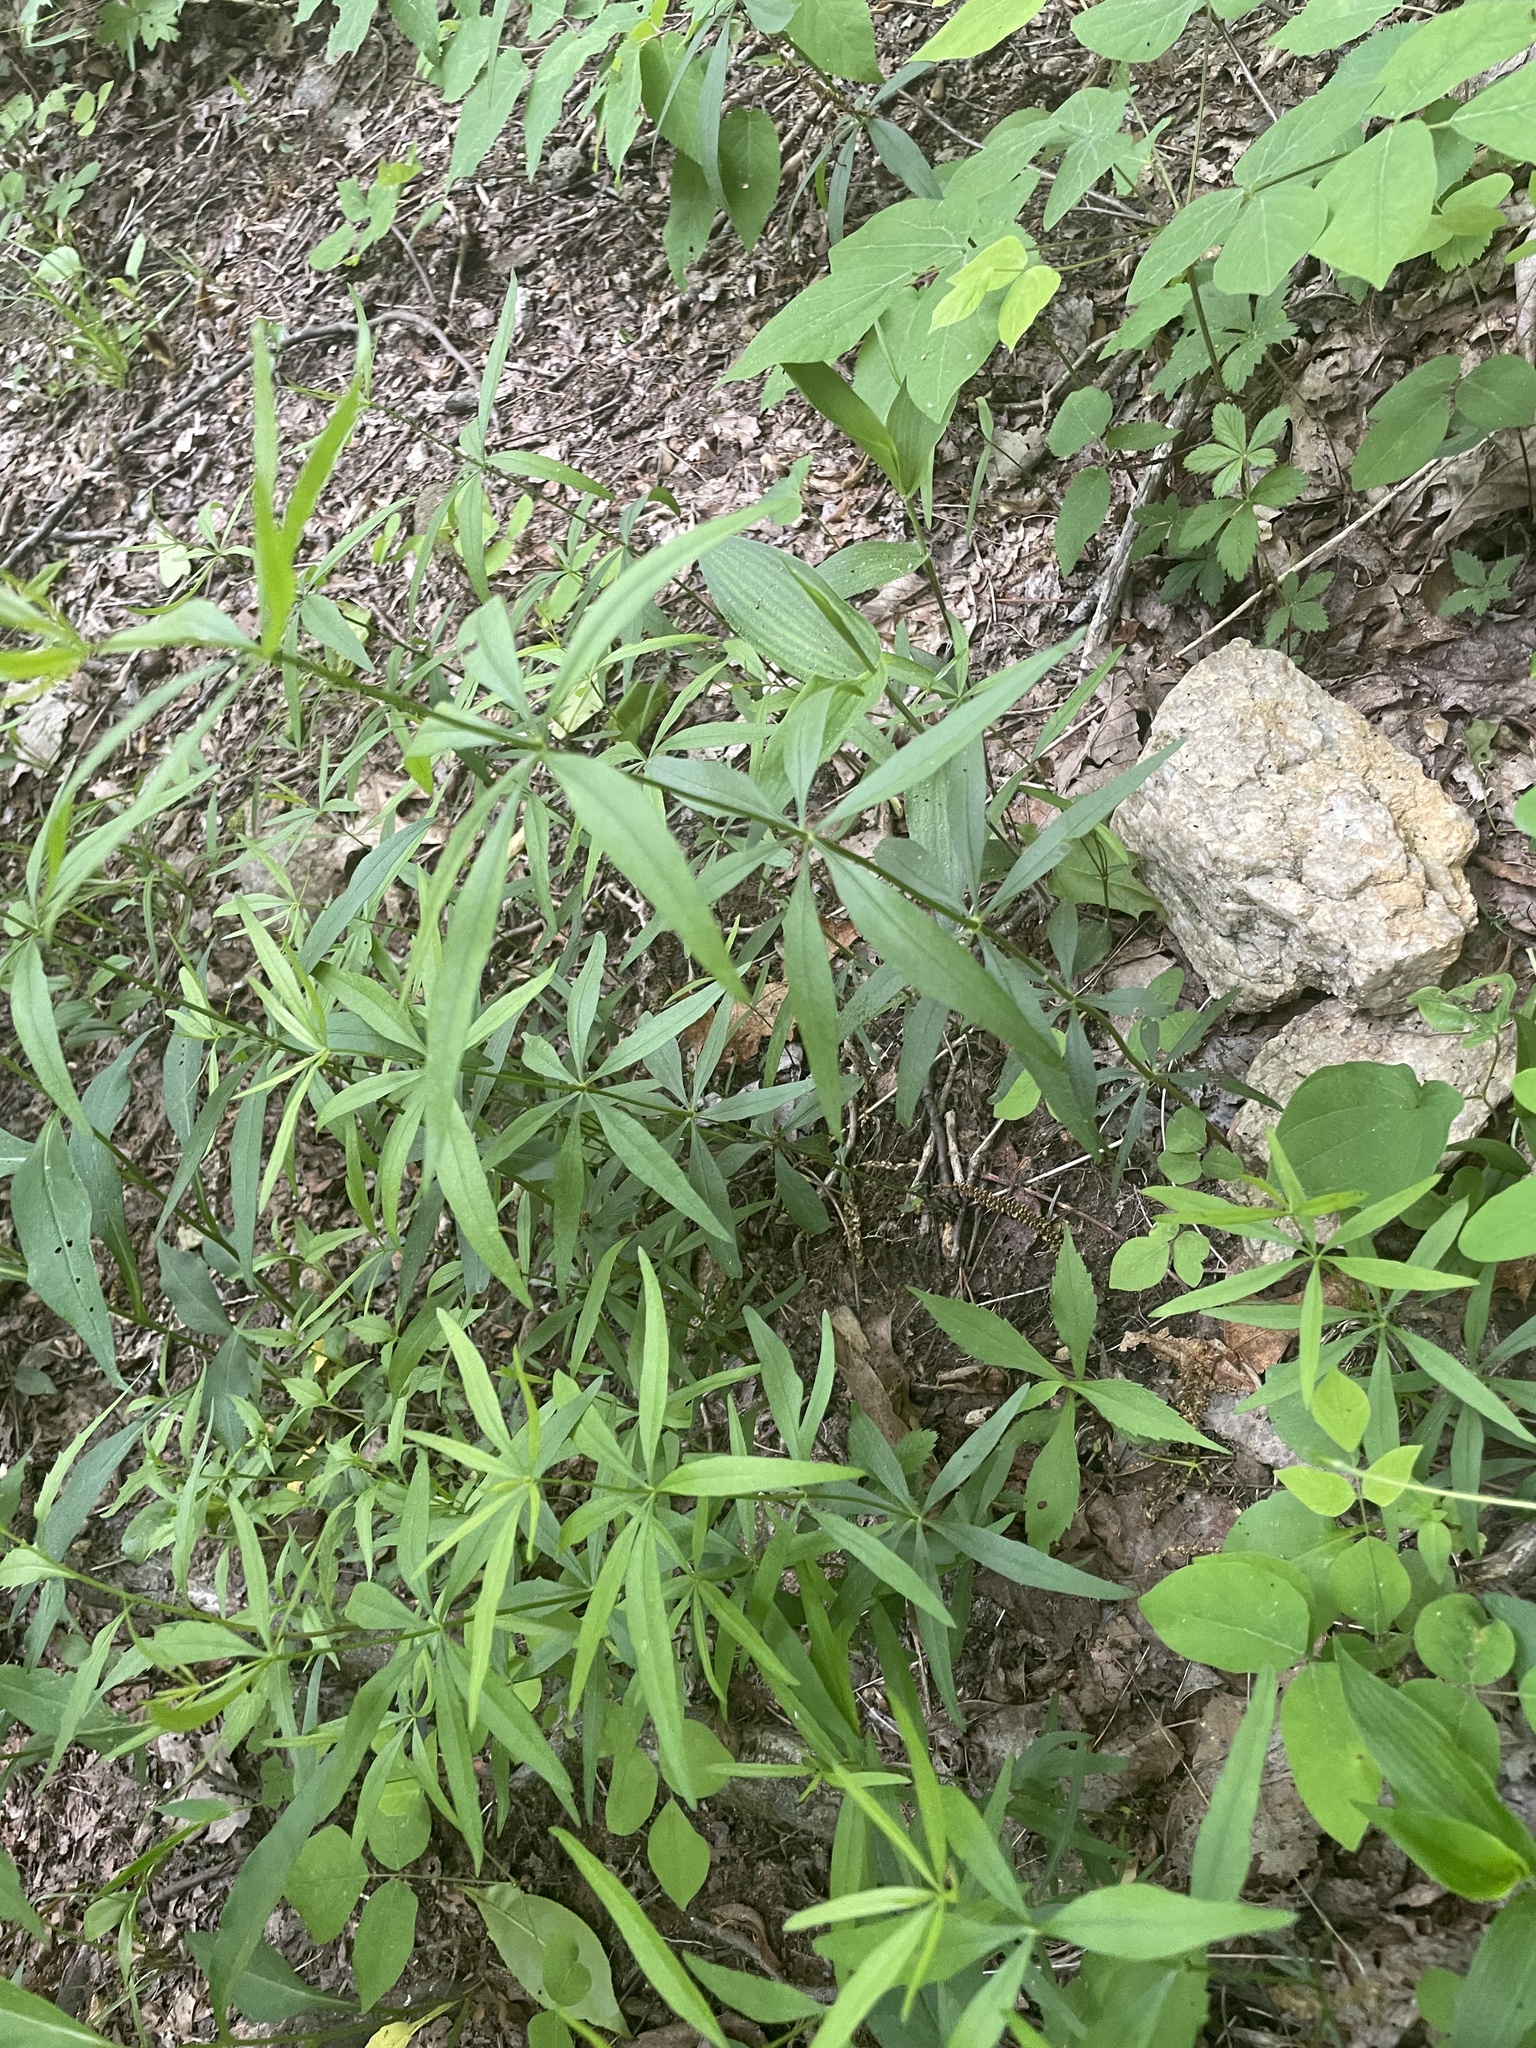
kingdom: Plantae
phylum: Tracheophyta
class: Magnoliopsida
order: Asterales
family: Asteraceae
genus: Coreopsis
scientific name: Coreopsis major
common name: Forest tickseed
